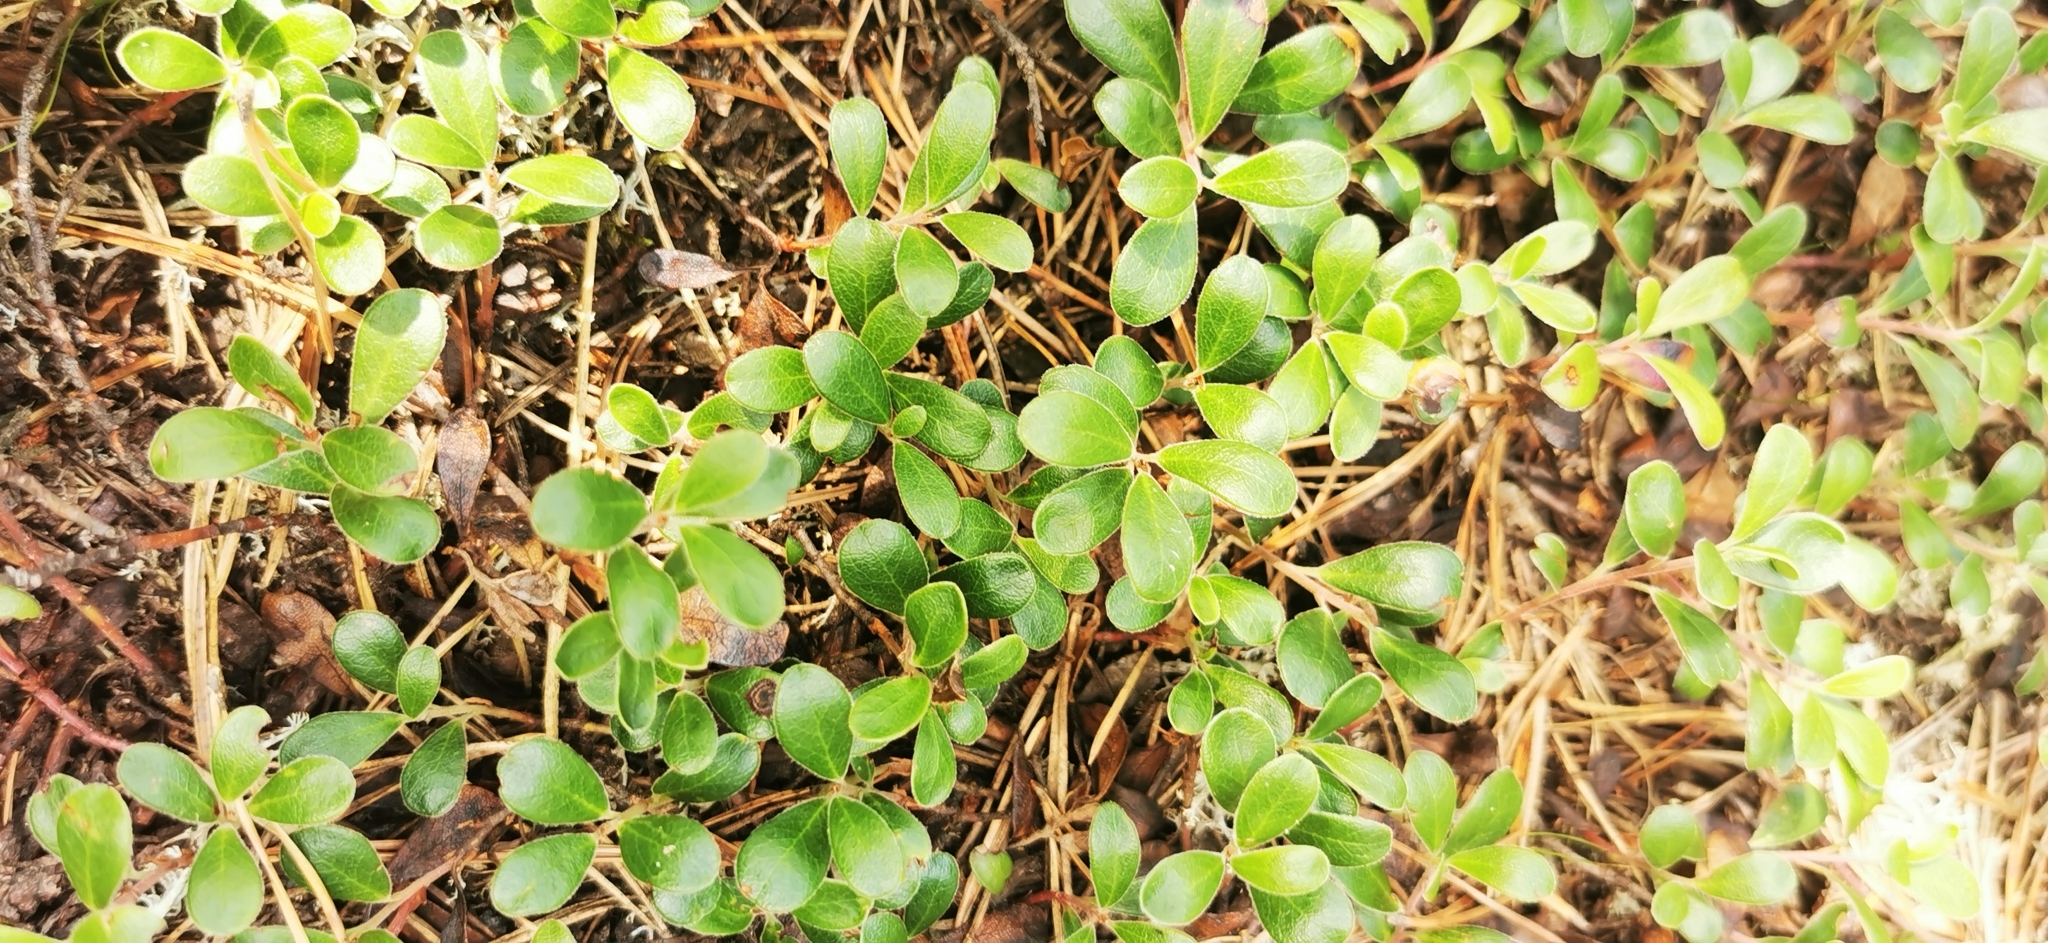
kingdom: Plantae
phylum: Tracheophyta
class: Magnoliopsida
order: Ericales
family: Ericaceae
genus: Arctostaphylos
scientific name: Arctostaphylos uva-ursi
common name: Bearberry
